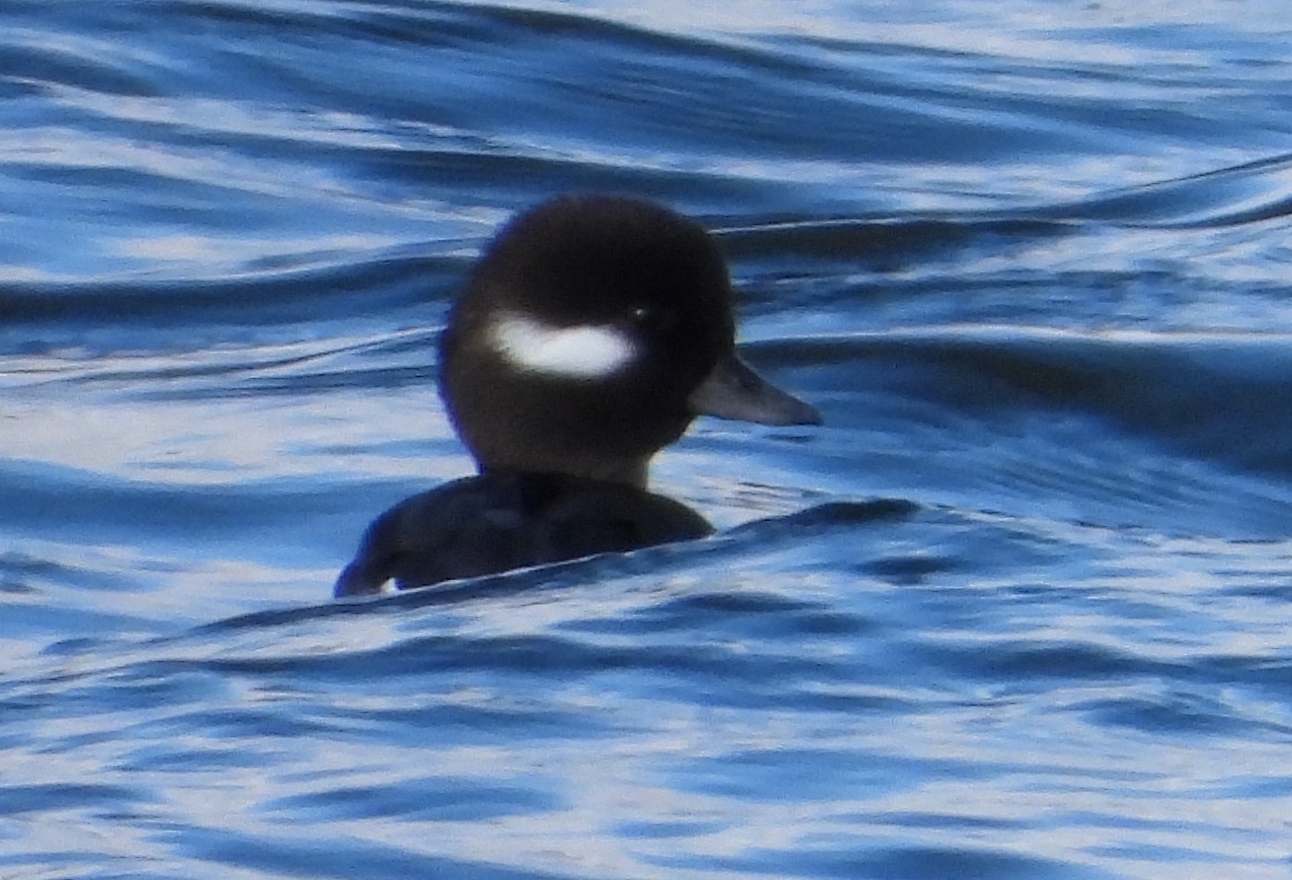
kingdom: Animalia
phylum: Chordata
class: Aves
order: Anseriformes
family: Anatidae
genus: Bucephala
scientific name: Bucephala albeola
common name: Bufflehead
